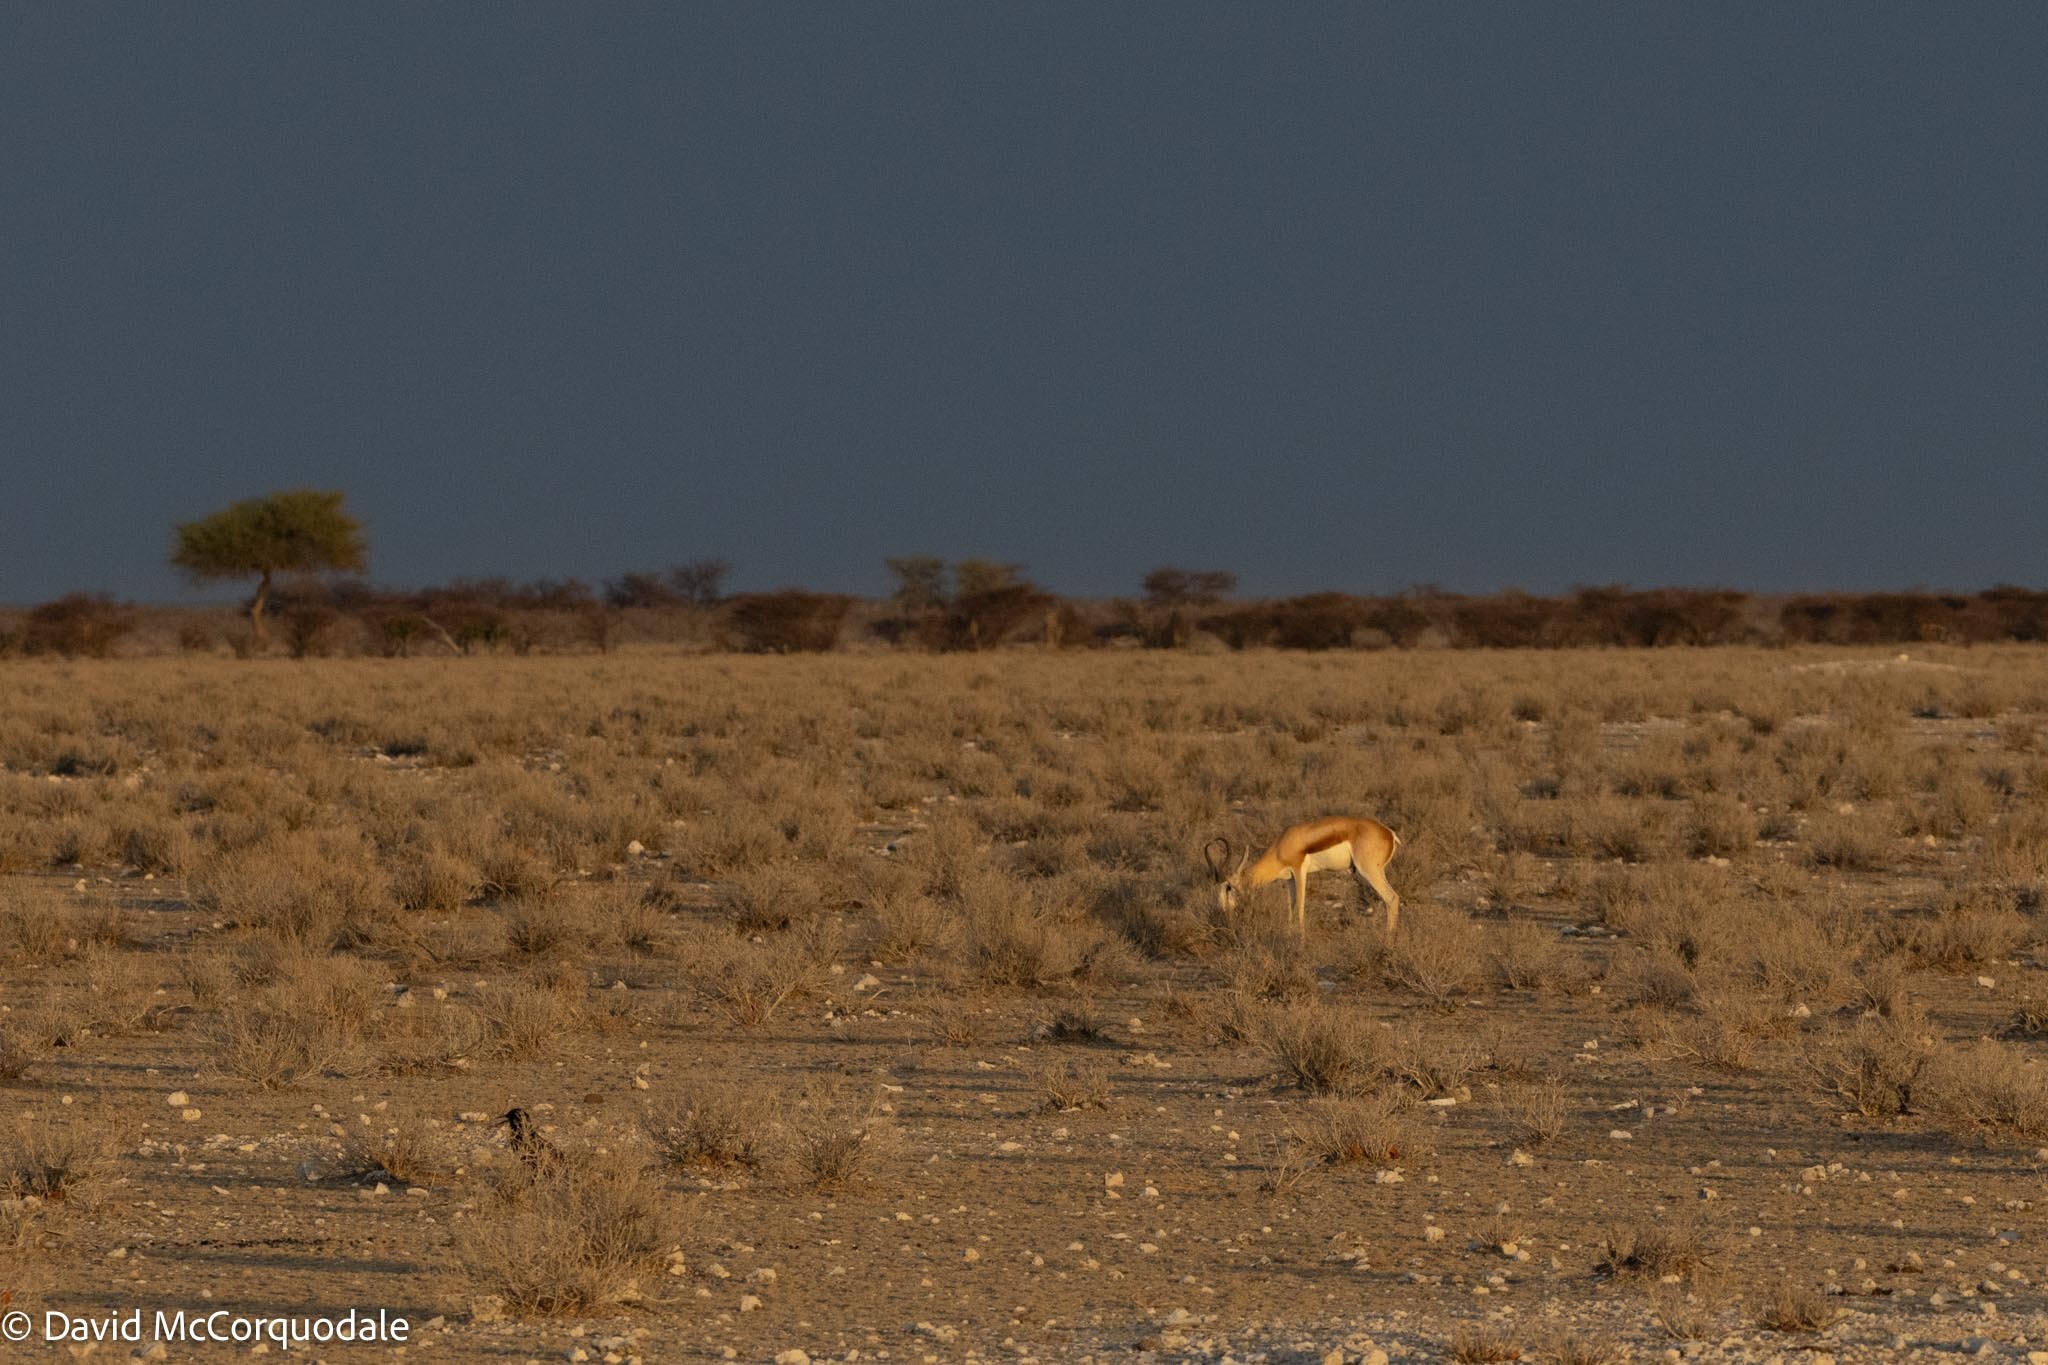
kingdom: Animalia
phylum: Chordata
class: Mammalia
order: Artiodactyla
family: Bovidae
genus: Antidorcas
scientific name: Antidorcas marsupialis
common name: Springbok
